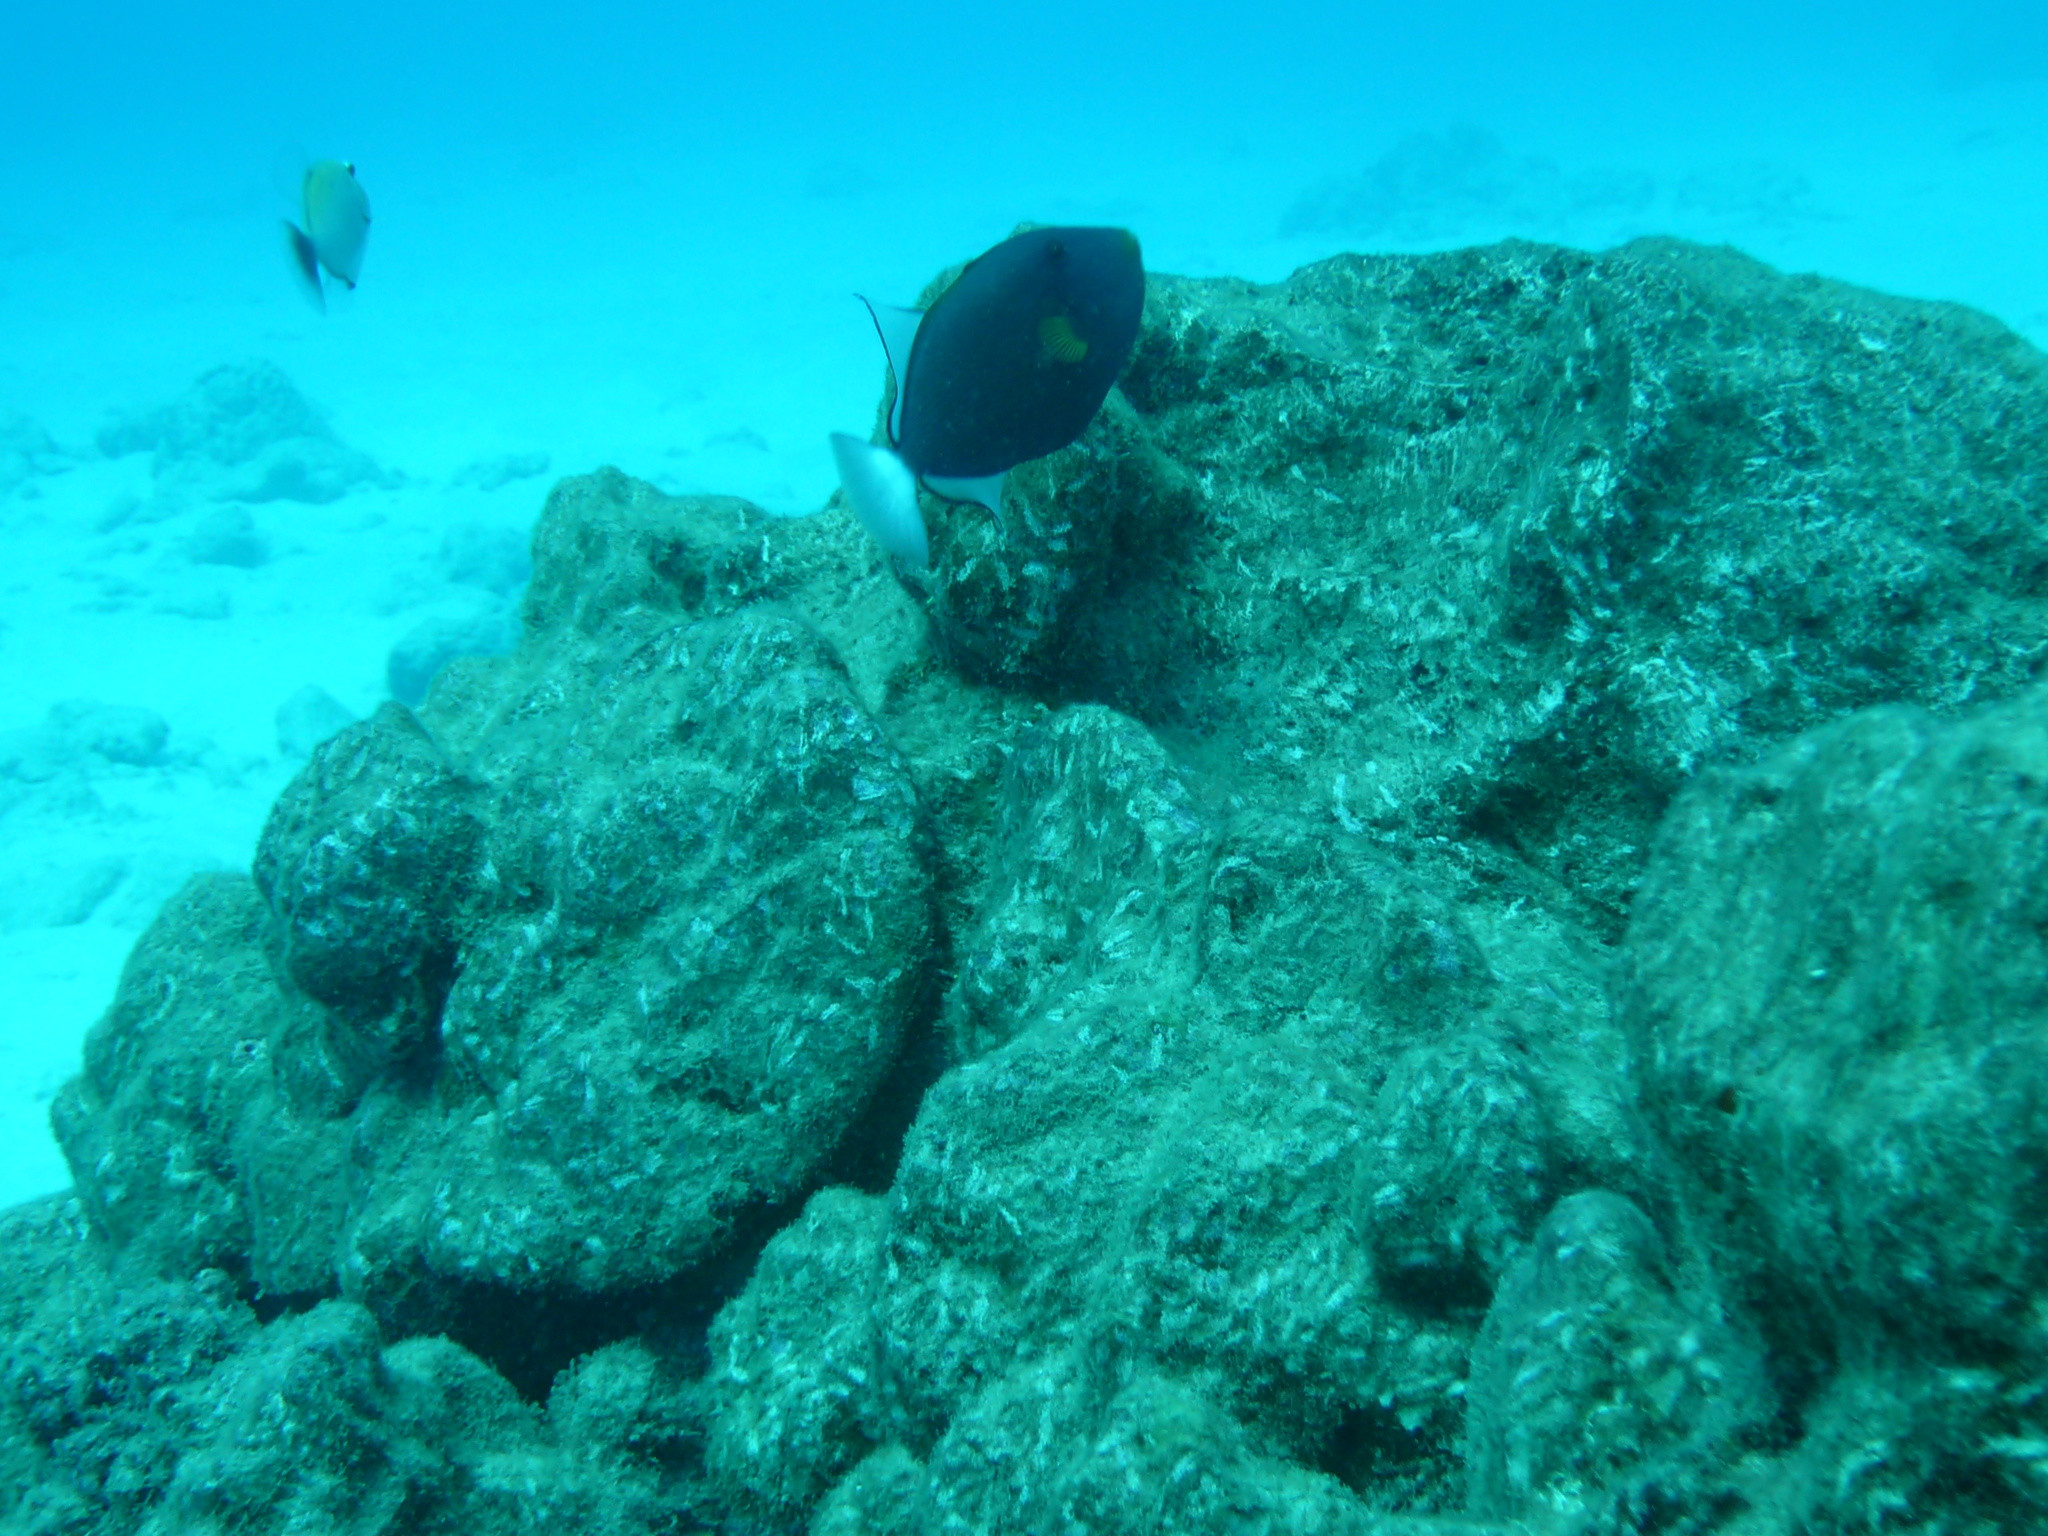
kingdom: Animalia
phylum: Chordata
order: Tetraodontiformes
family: Balistidae
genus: Melichthys
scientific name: Melichthys vidua
